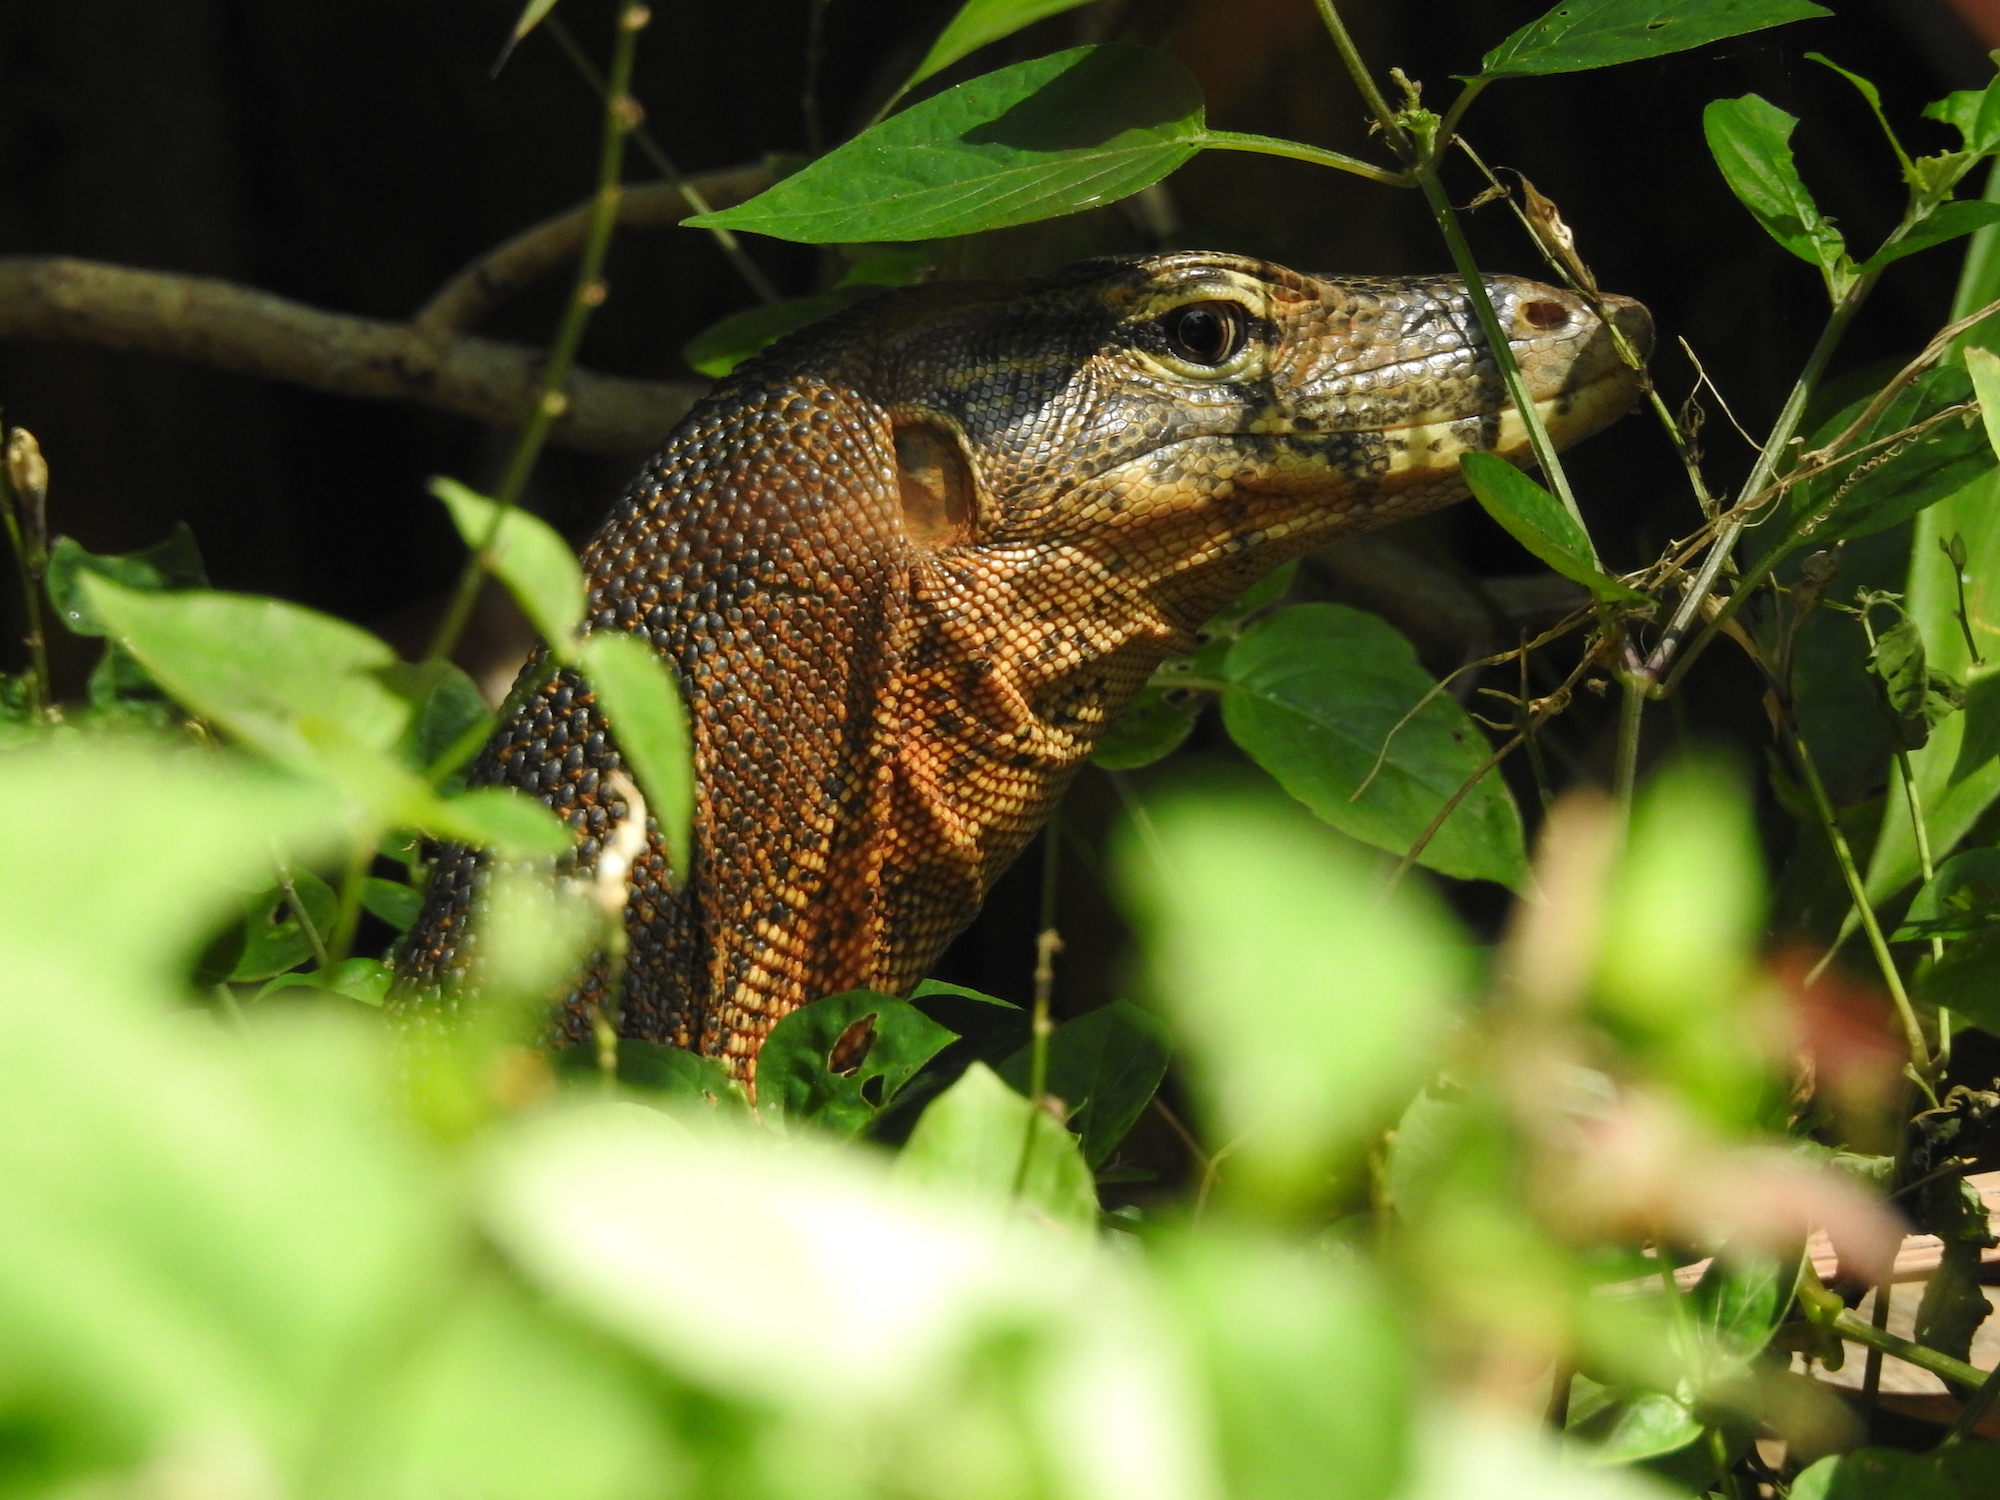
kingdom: Animalia
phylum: Chordata
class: Squamata
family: Varanidae
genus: Varanus
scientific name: Varanus salvator
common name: Common water monitor
